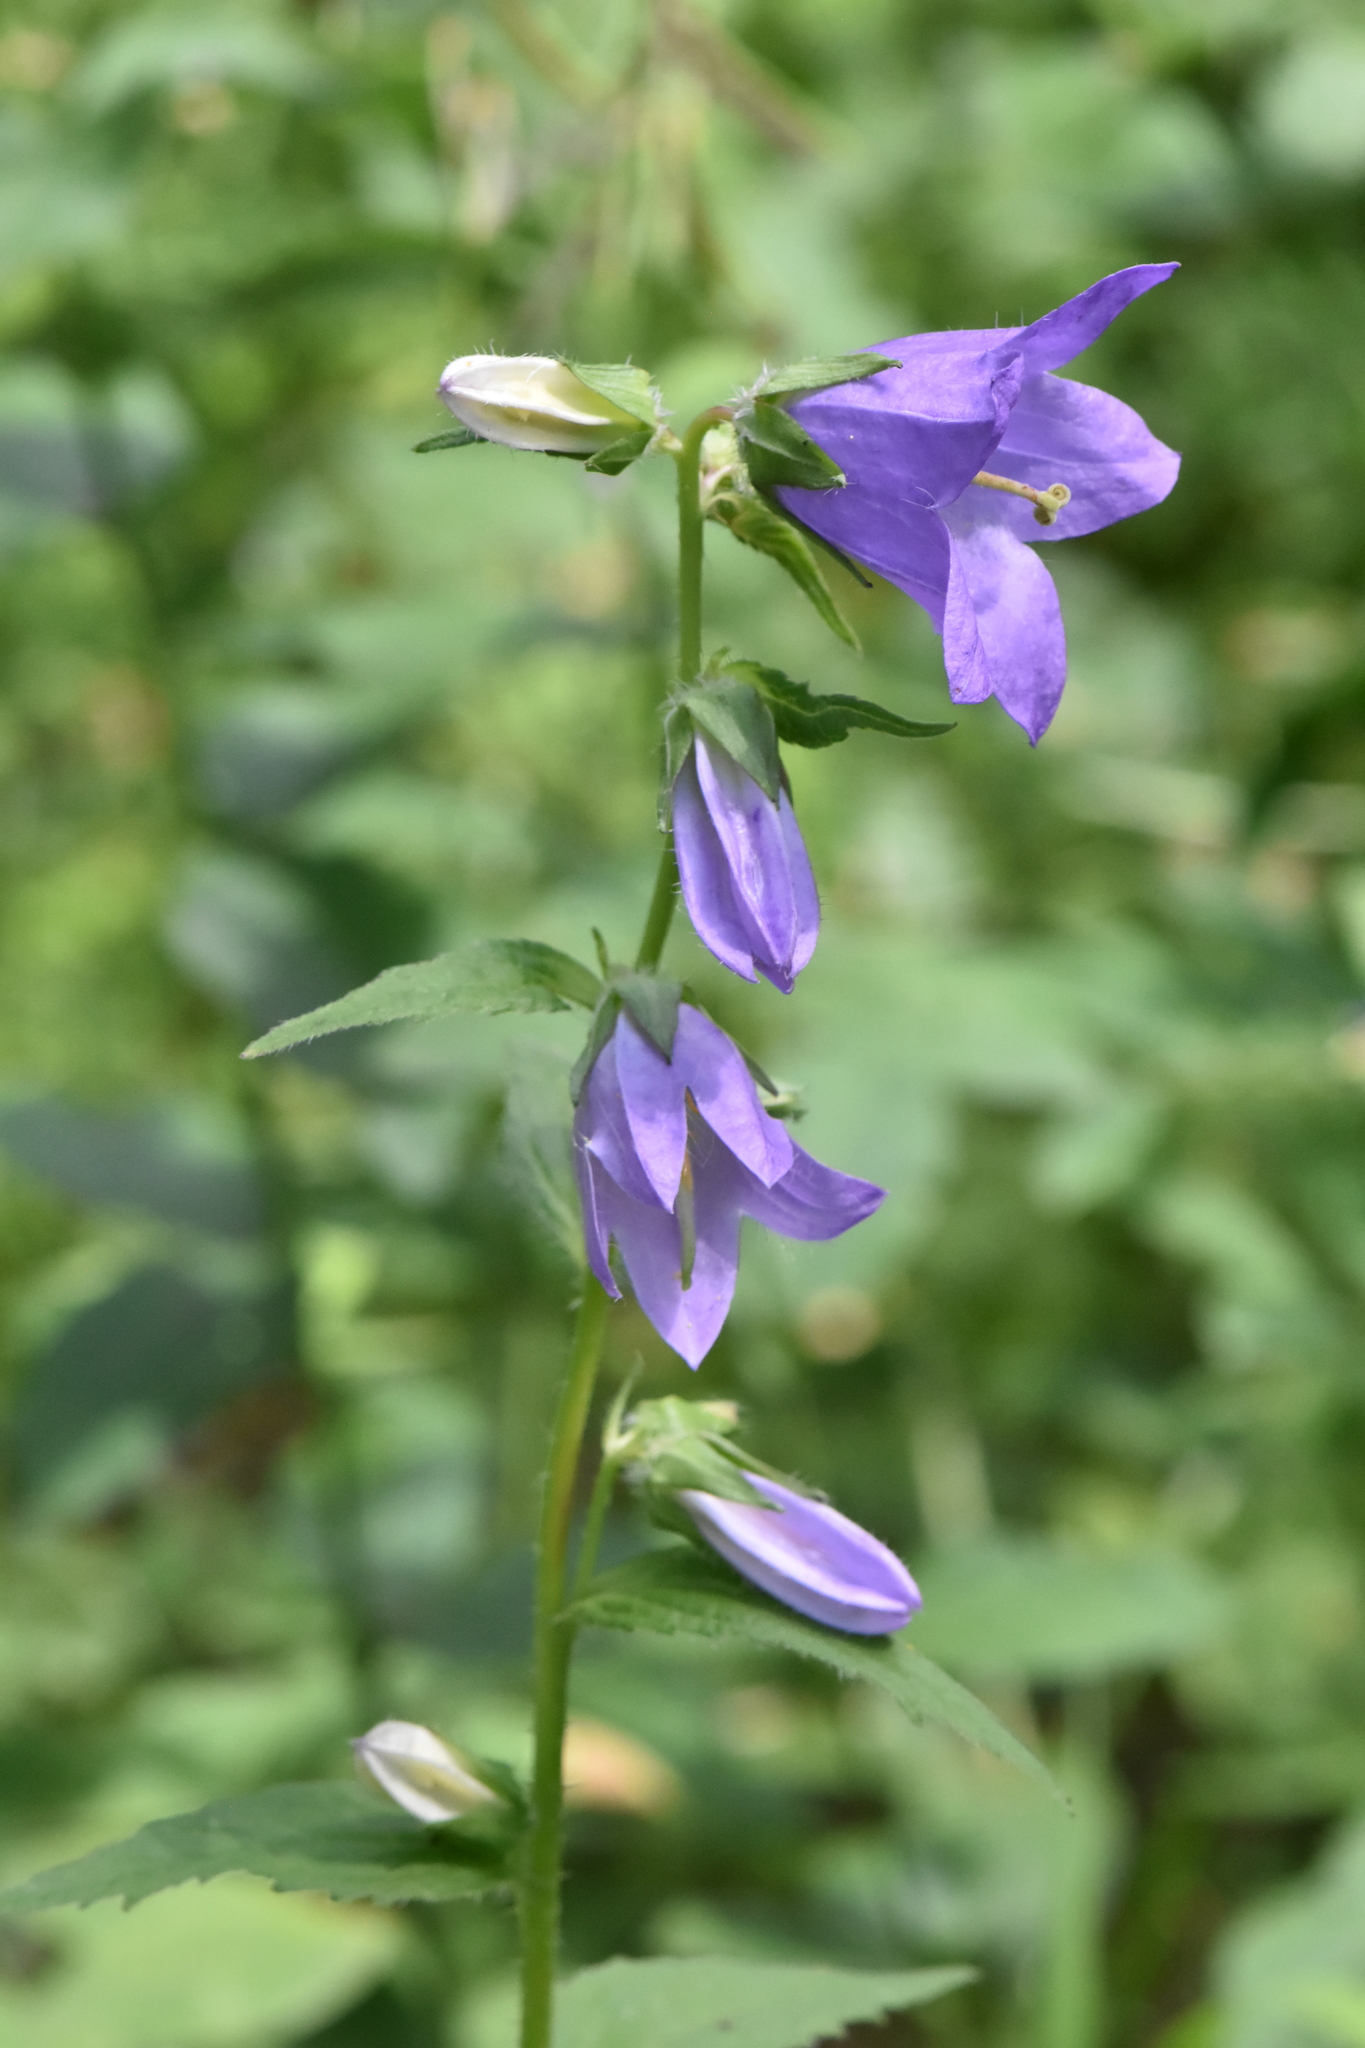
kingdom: Plantae
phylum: Tracheophyta
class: Magnoliopsida
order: Asterales
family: Campanulaceae
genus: Campanula
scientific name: Campanula trachelium
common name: Nettle-leaved bellflower
